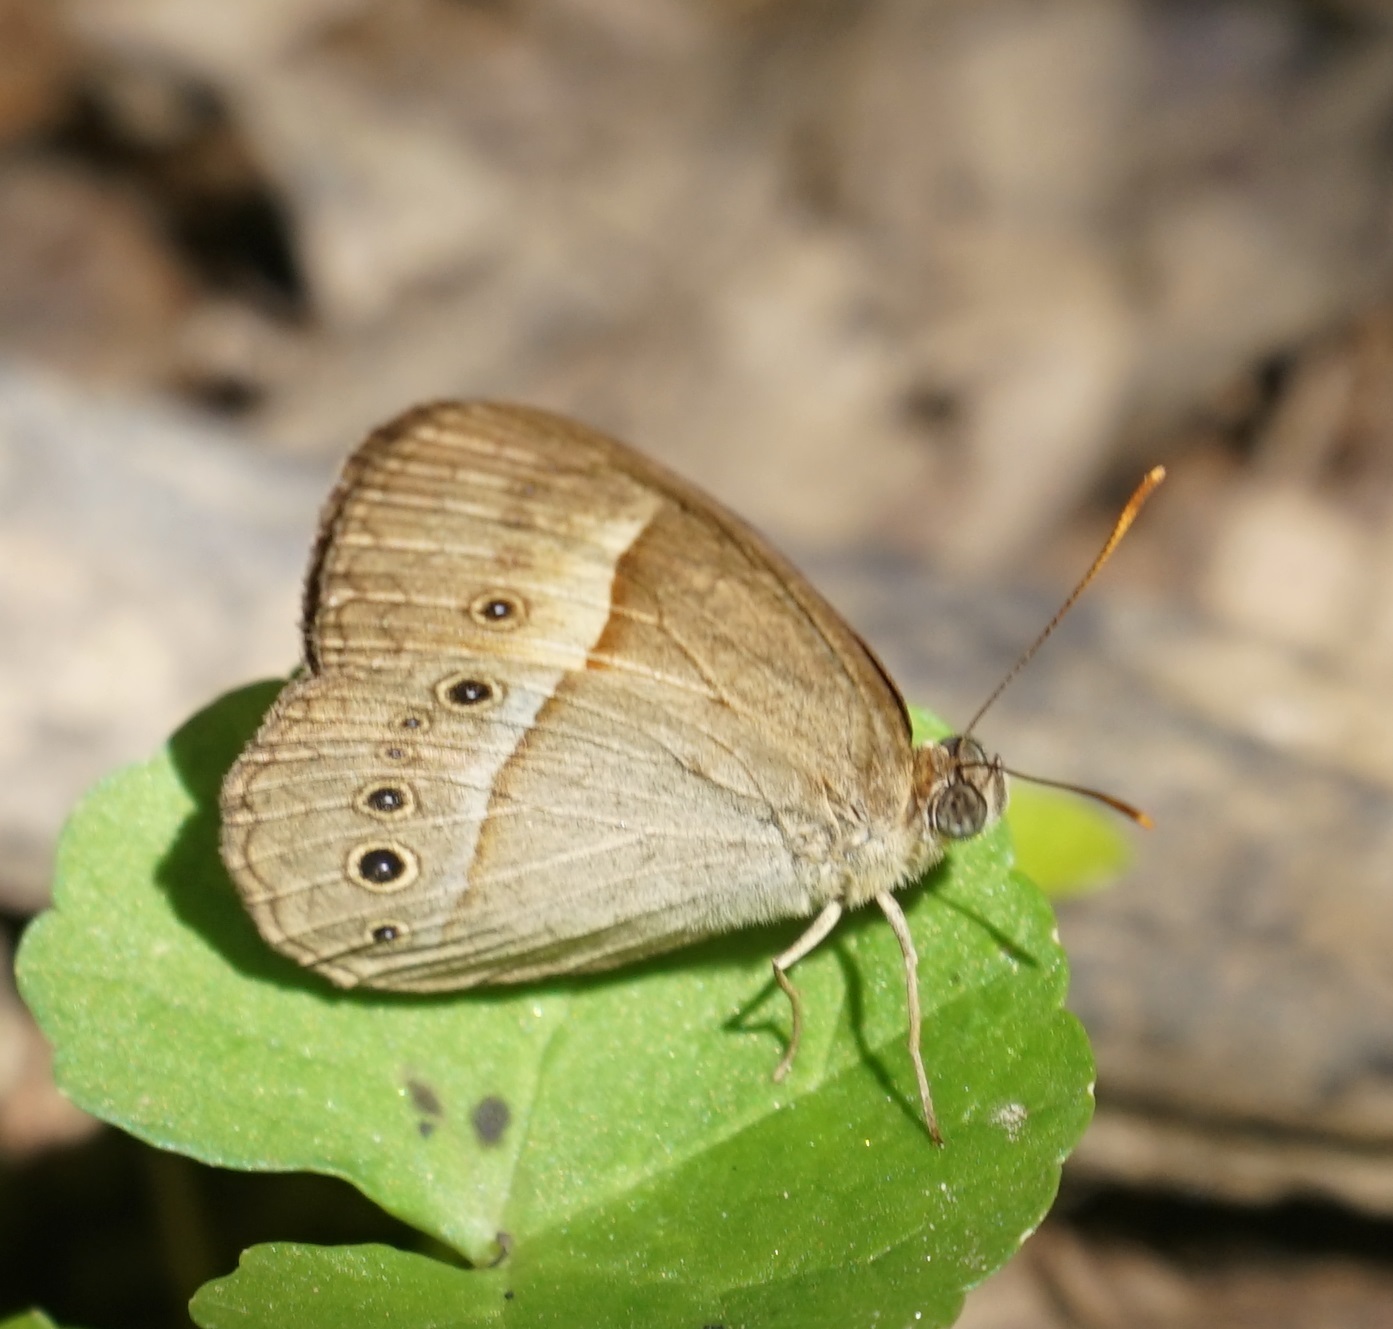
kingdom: Animalia
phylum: Arthropoda
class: Insecta
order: Lepidoptera
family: Nymphalidae
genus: Mycalesis
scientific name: Mycalesis terminus
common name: Orange bushbrown
